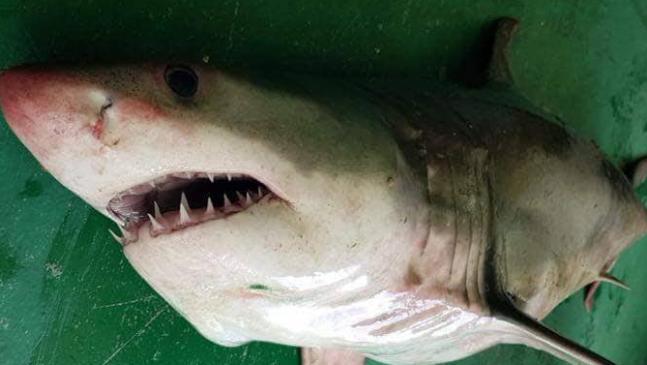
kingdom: Animalia
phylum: Chordata
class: Elasmobranchii
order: Lamniformes
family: Lamnidae
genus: Carcharodon
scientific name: Carcharodon carcharias
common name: Great white shark
